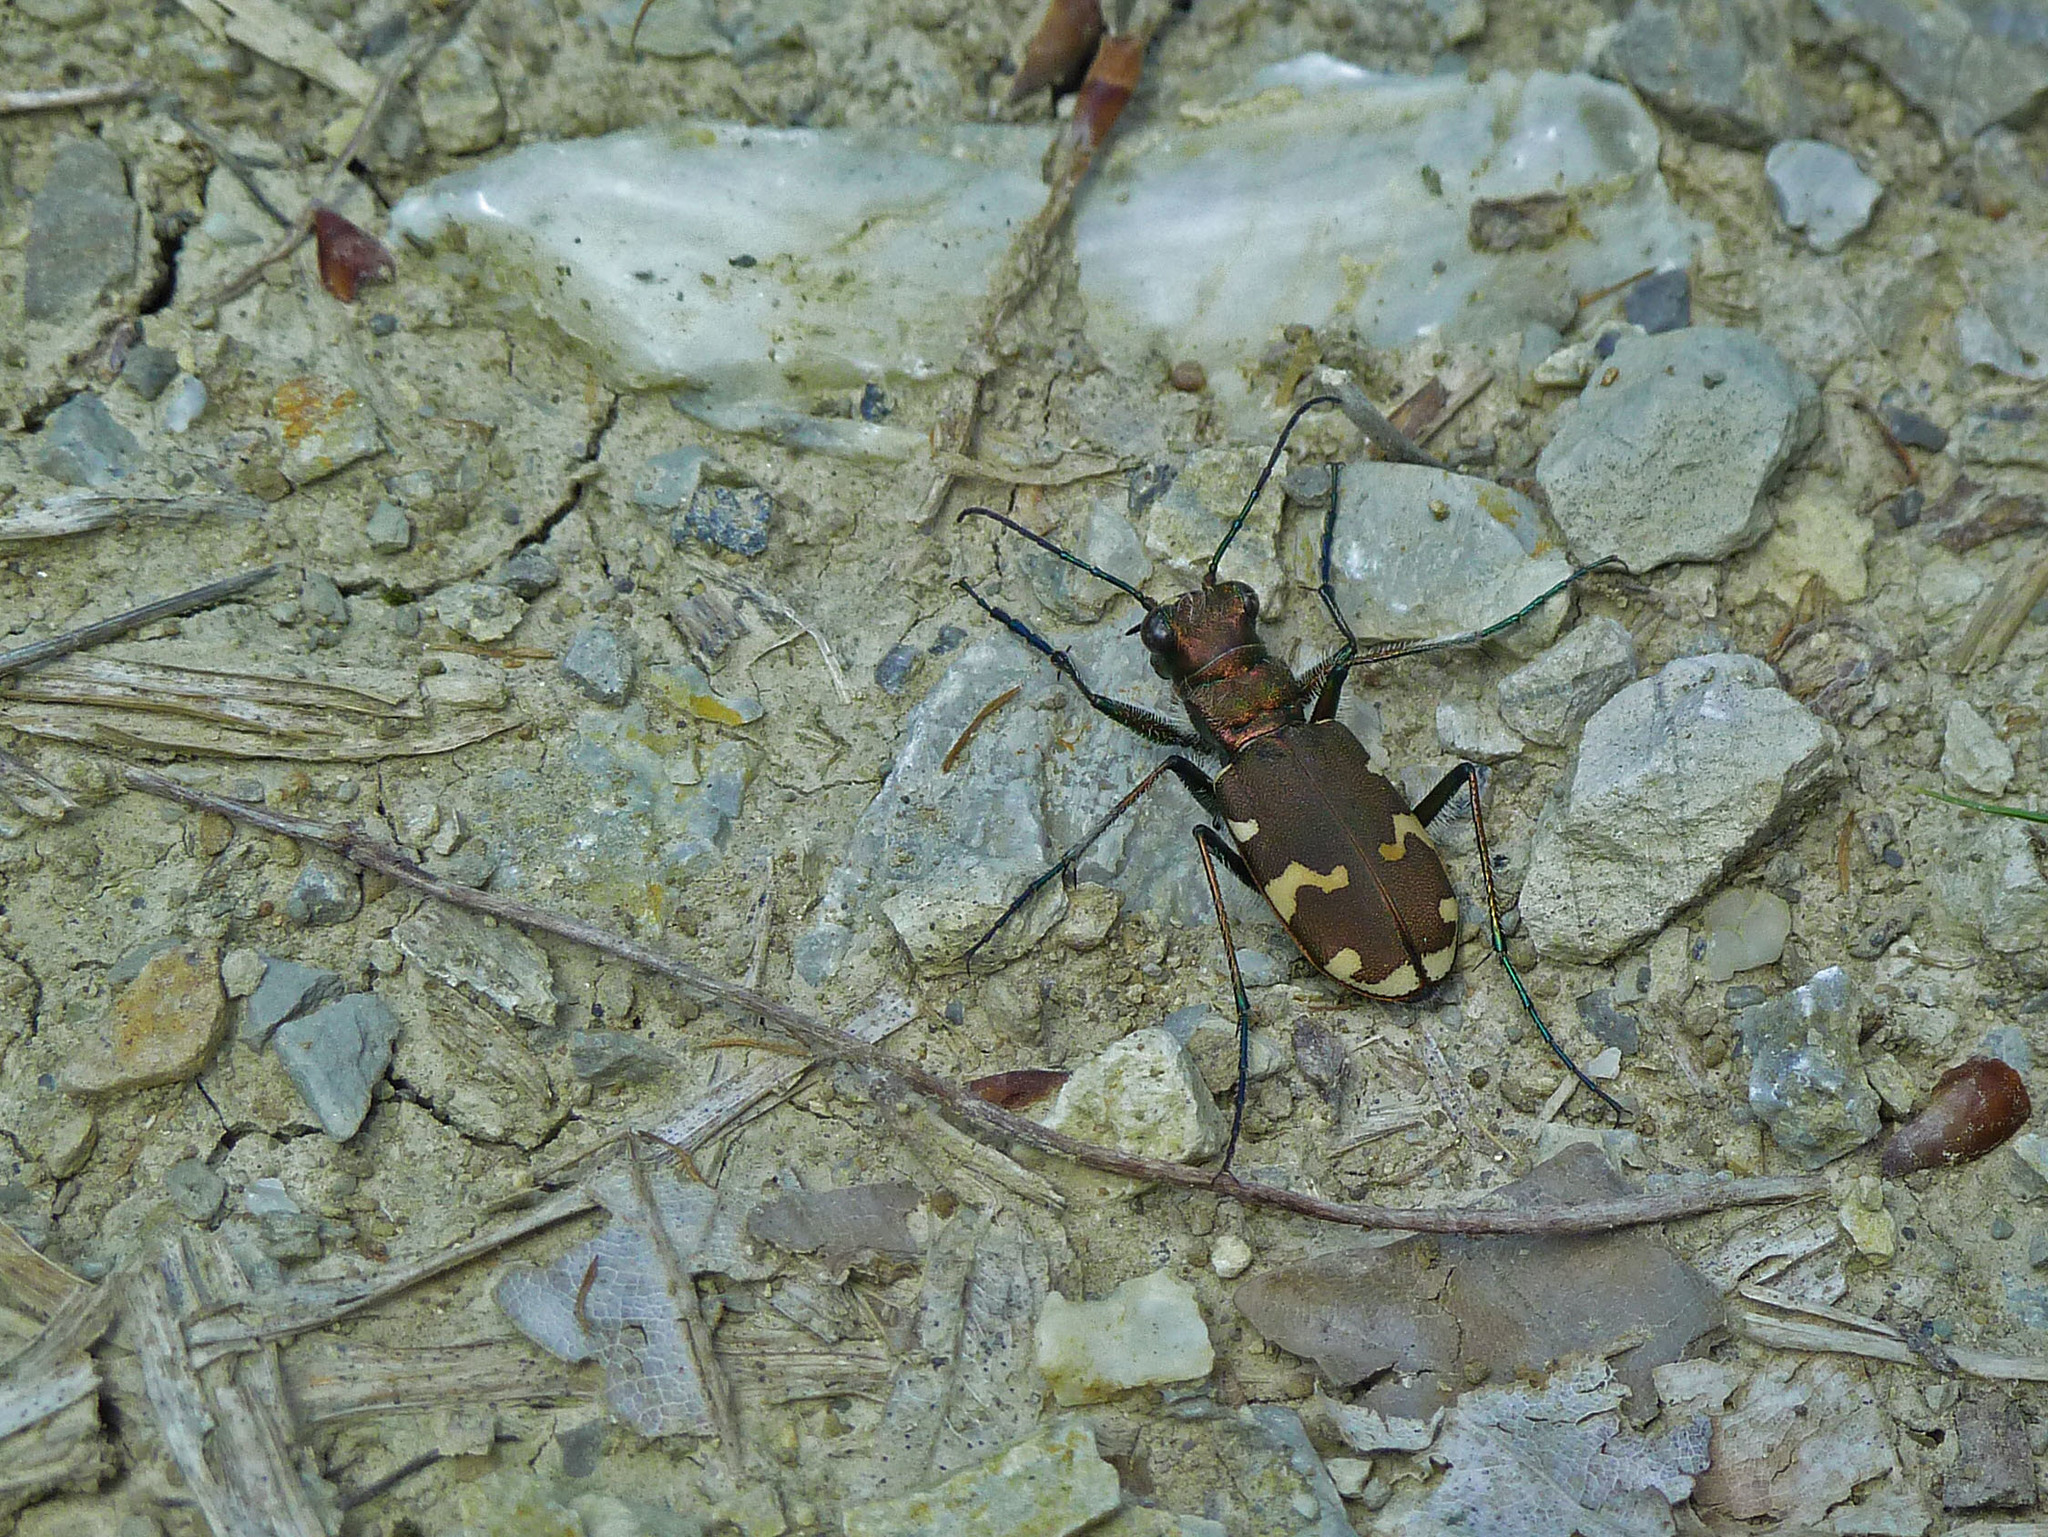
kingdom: Animalia
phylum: Arthropoda
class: Insecta
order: Coleoptera
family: Carabidae
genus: Cicindela
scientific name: Cicindela sylvicola
